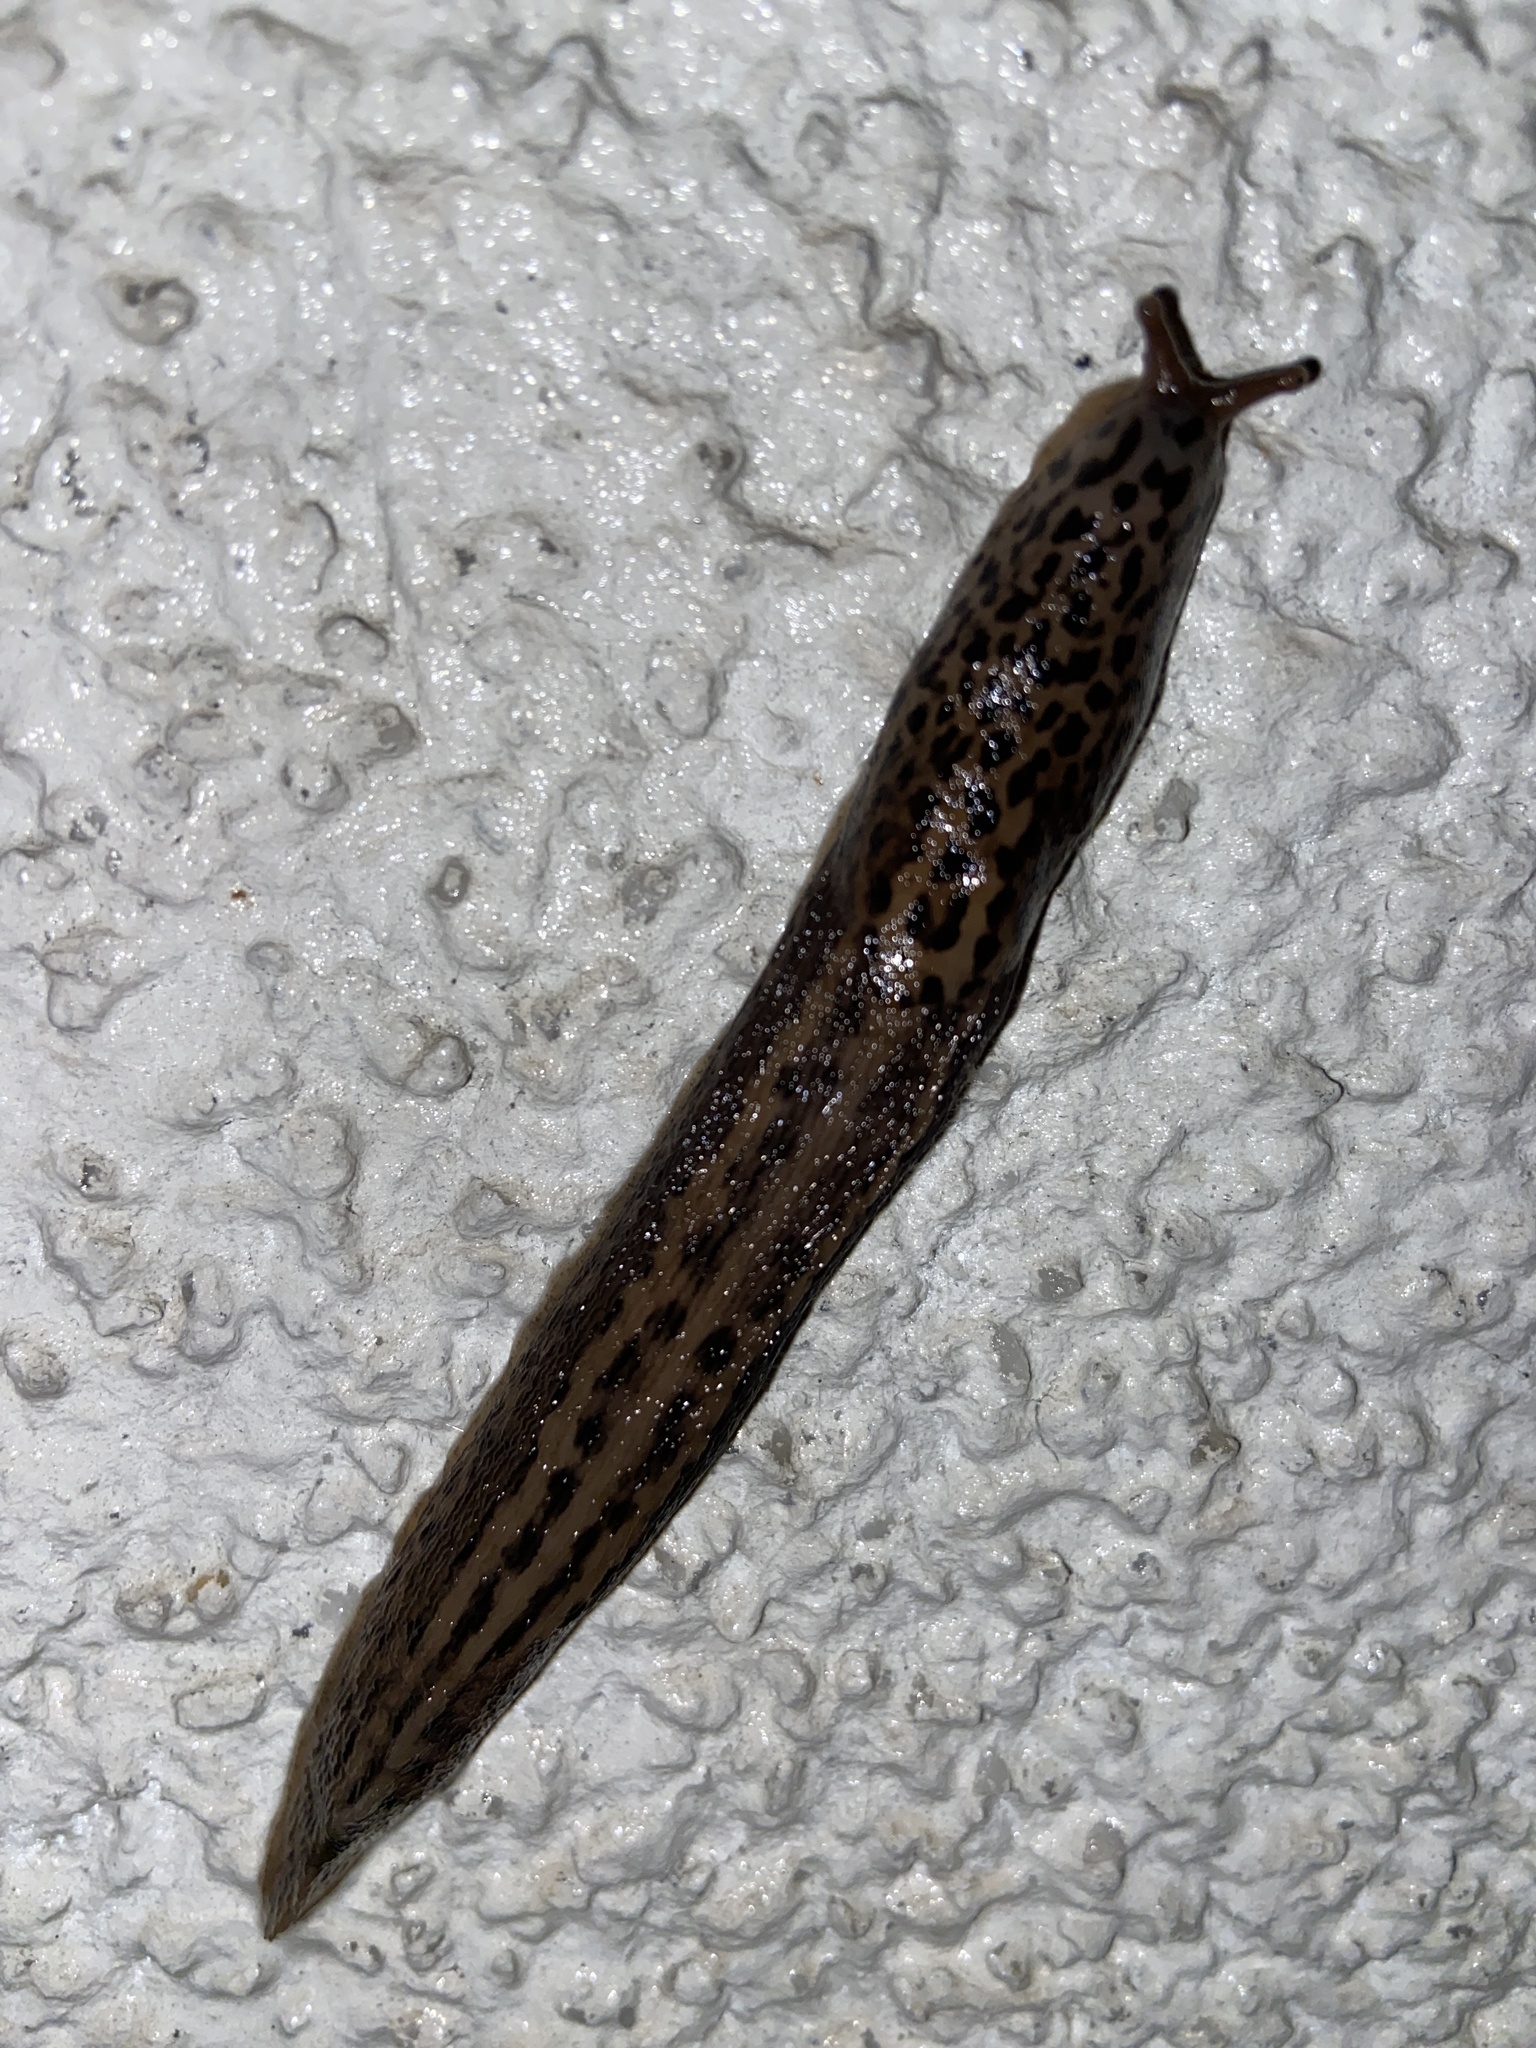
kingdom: Animalia
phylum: Mollusca
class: Gastropoda
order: Stylommatophora
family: Limacidae
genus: Limax
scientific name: Limax maximus
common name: Great grey slug
